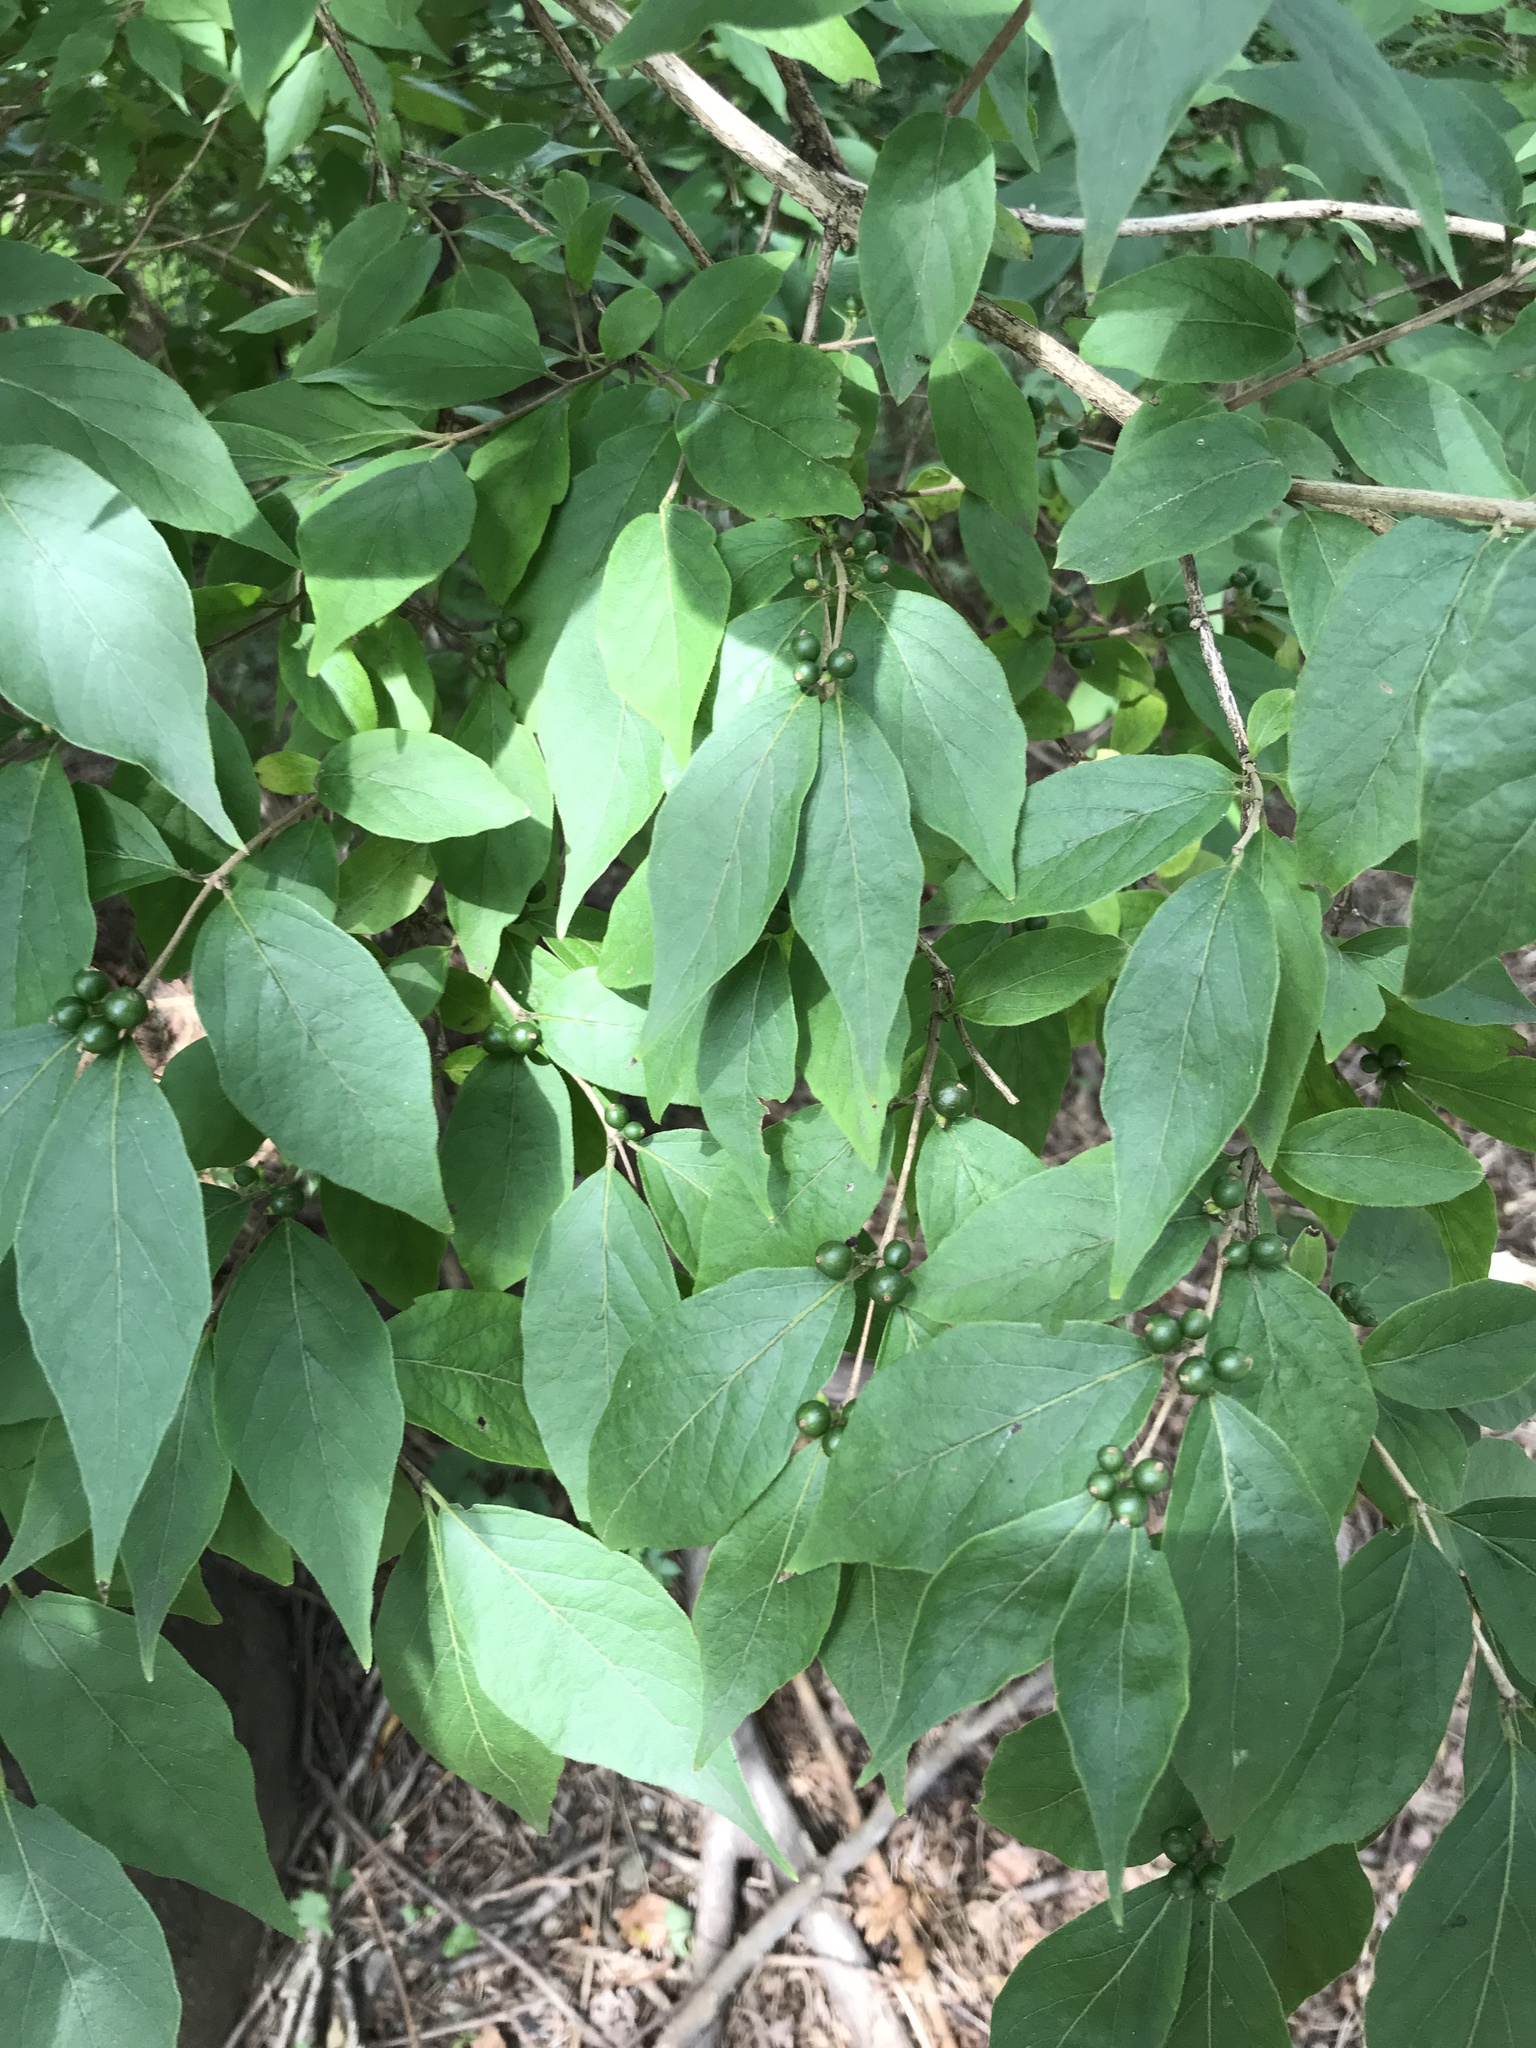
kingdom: Plantae
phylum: Tracheophyta
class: Magnoliopsida
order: Dipsacales
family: Caprifoliaceae
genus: Lonicera
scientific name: Lonicera maackii
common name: Amur honeysuckle
